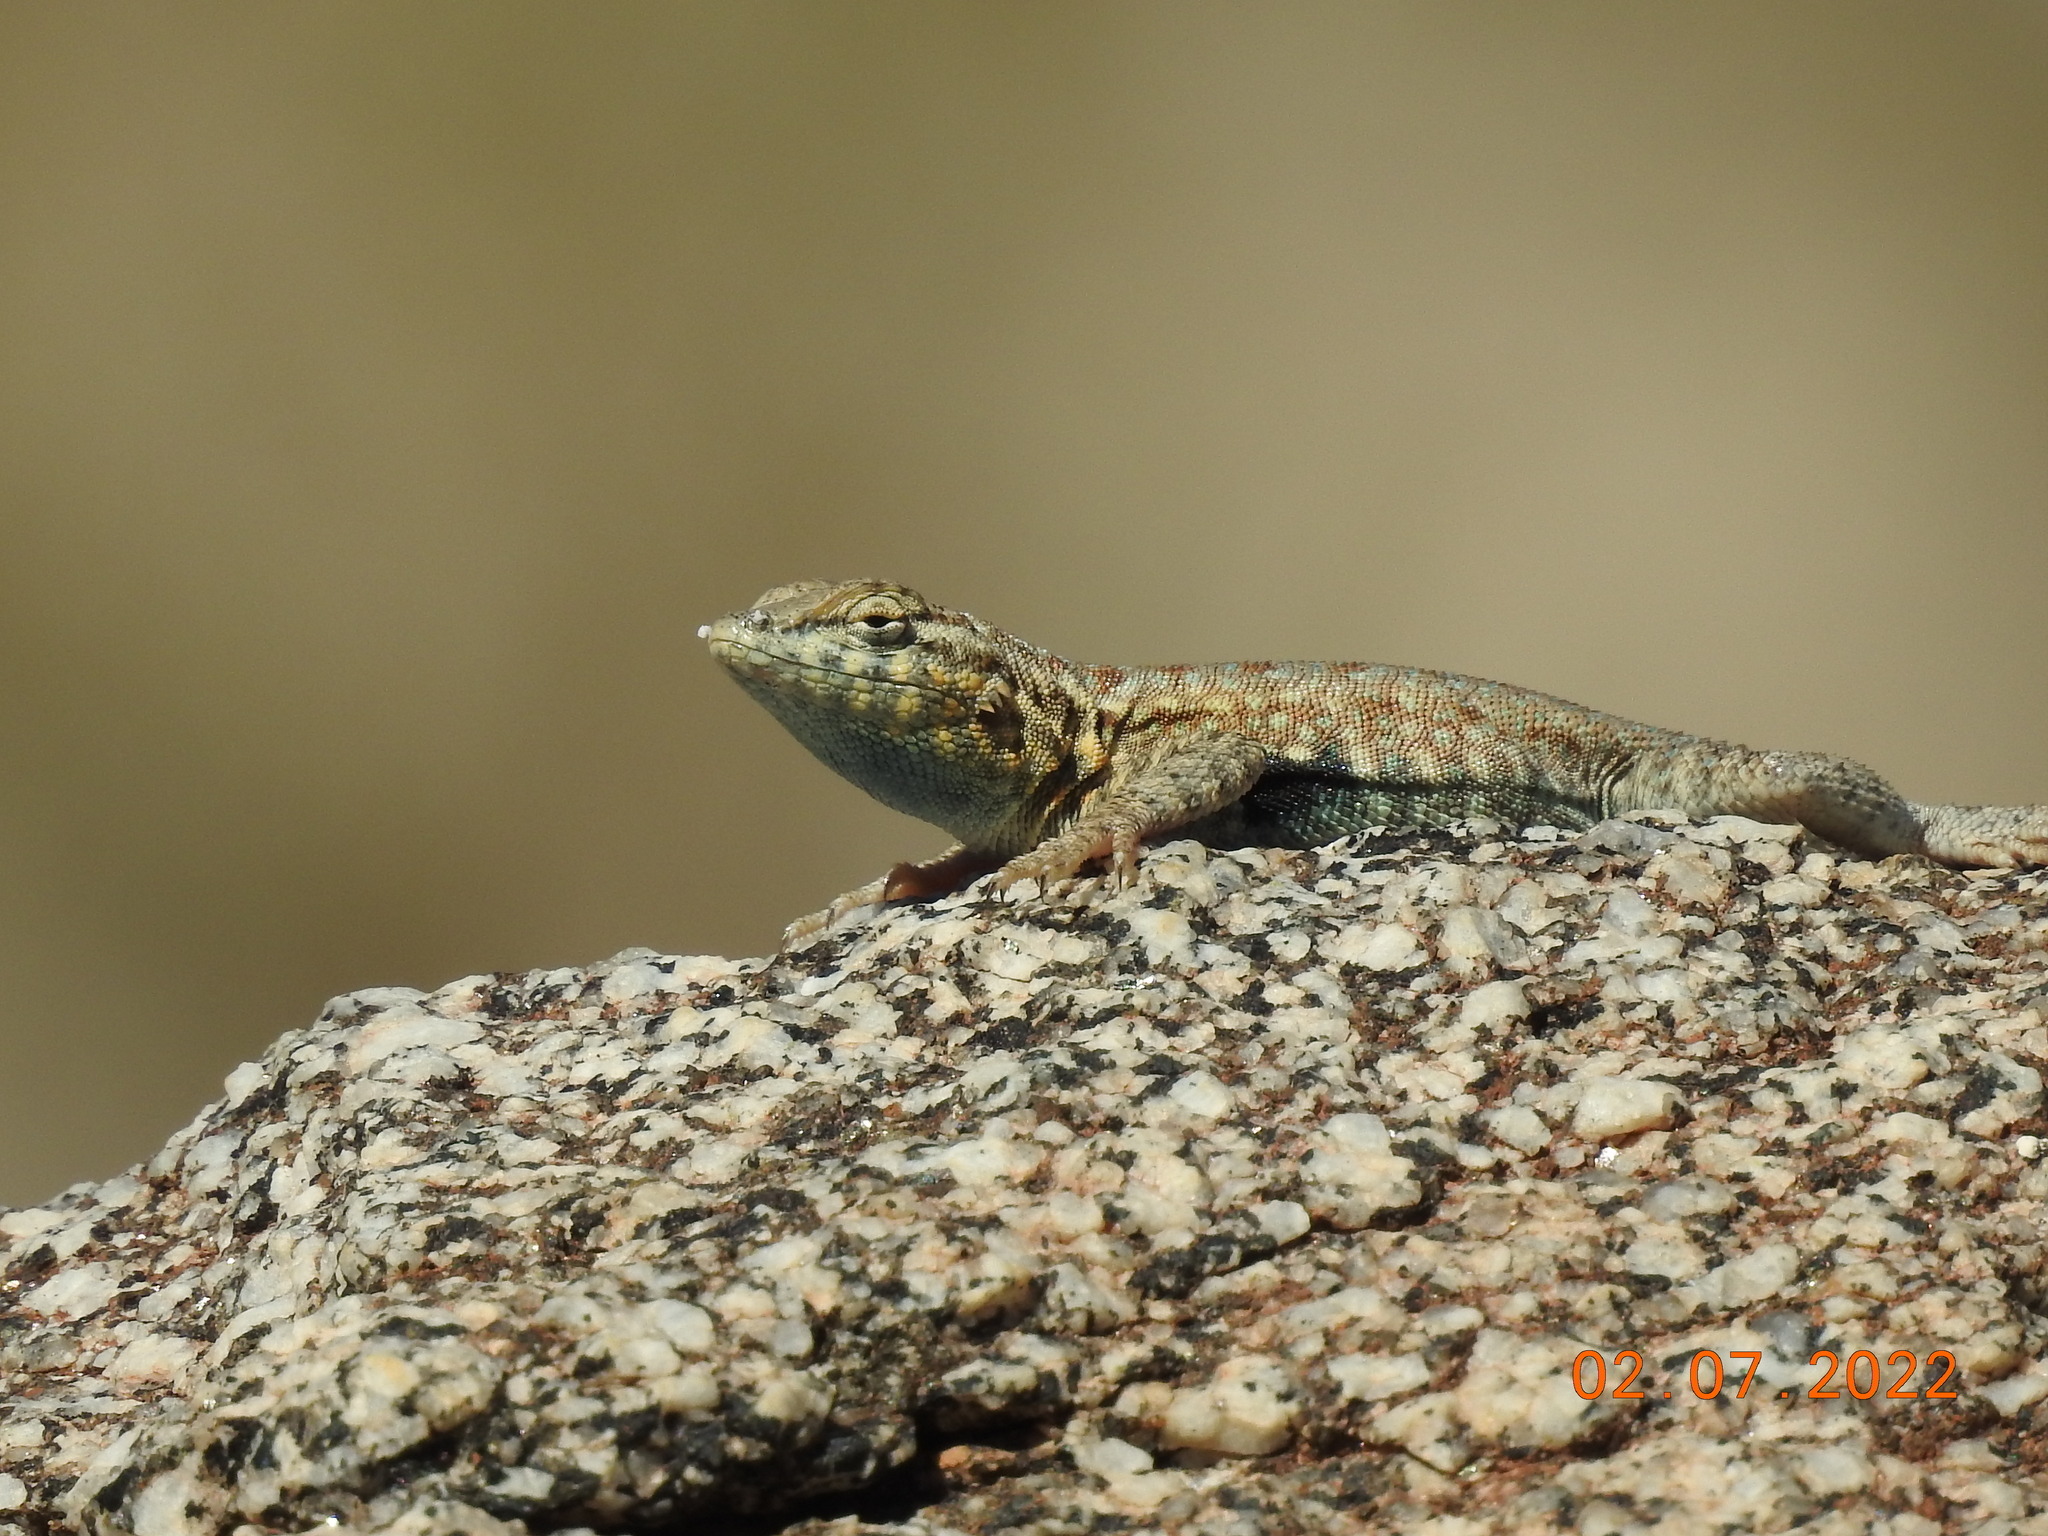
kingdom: Animalia
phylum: Chordata
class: Squamata
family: Phrynosomatidae
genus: Uta
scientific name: Uta stansburiana
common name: Side-blotched lizard
